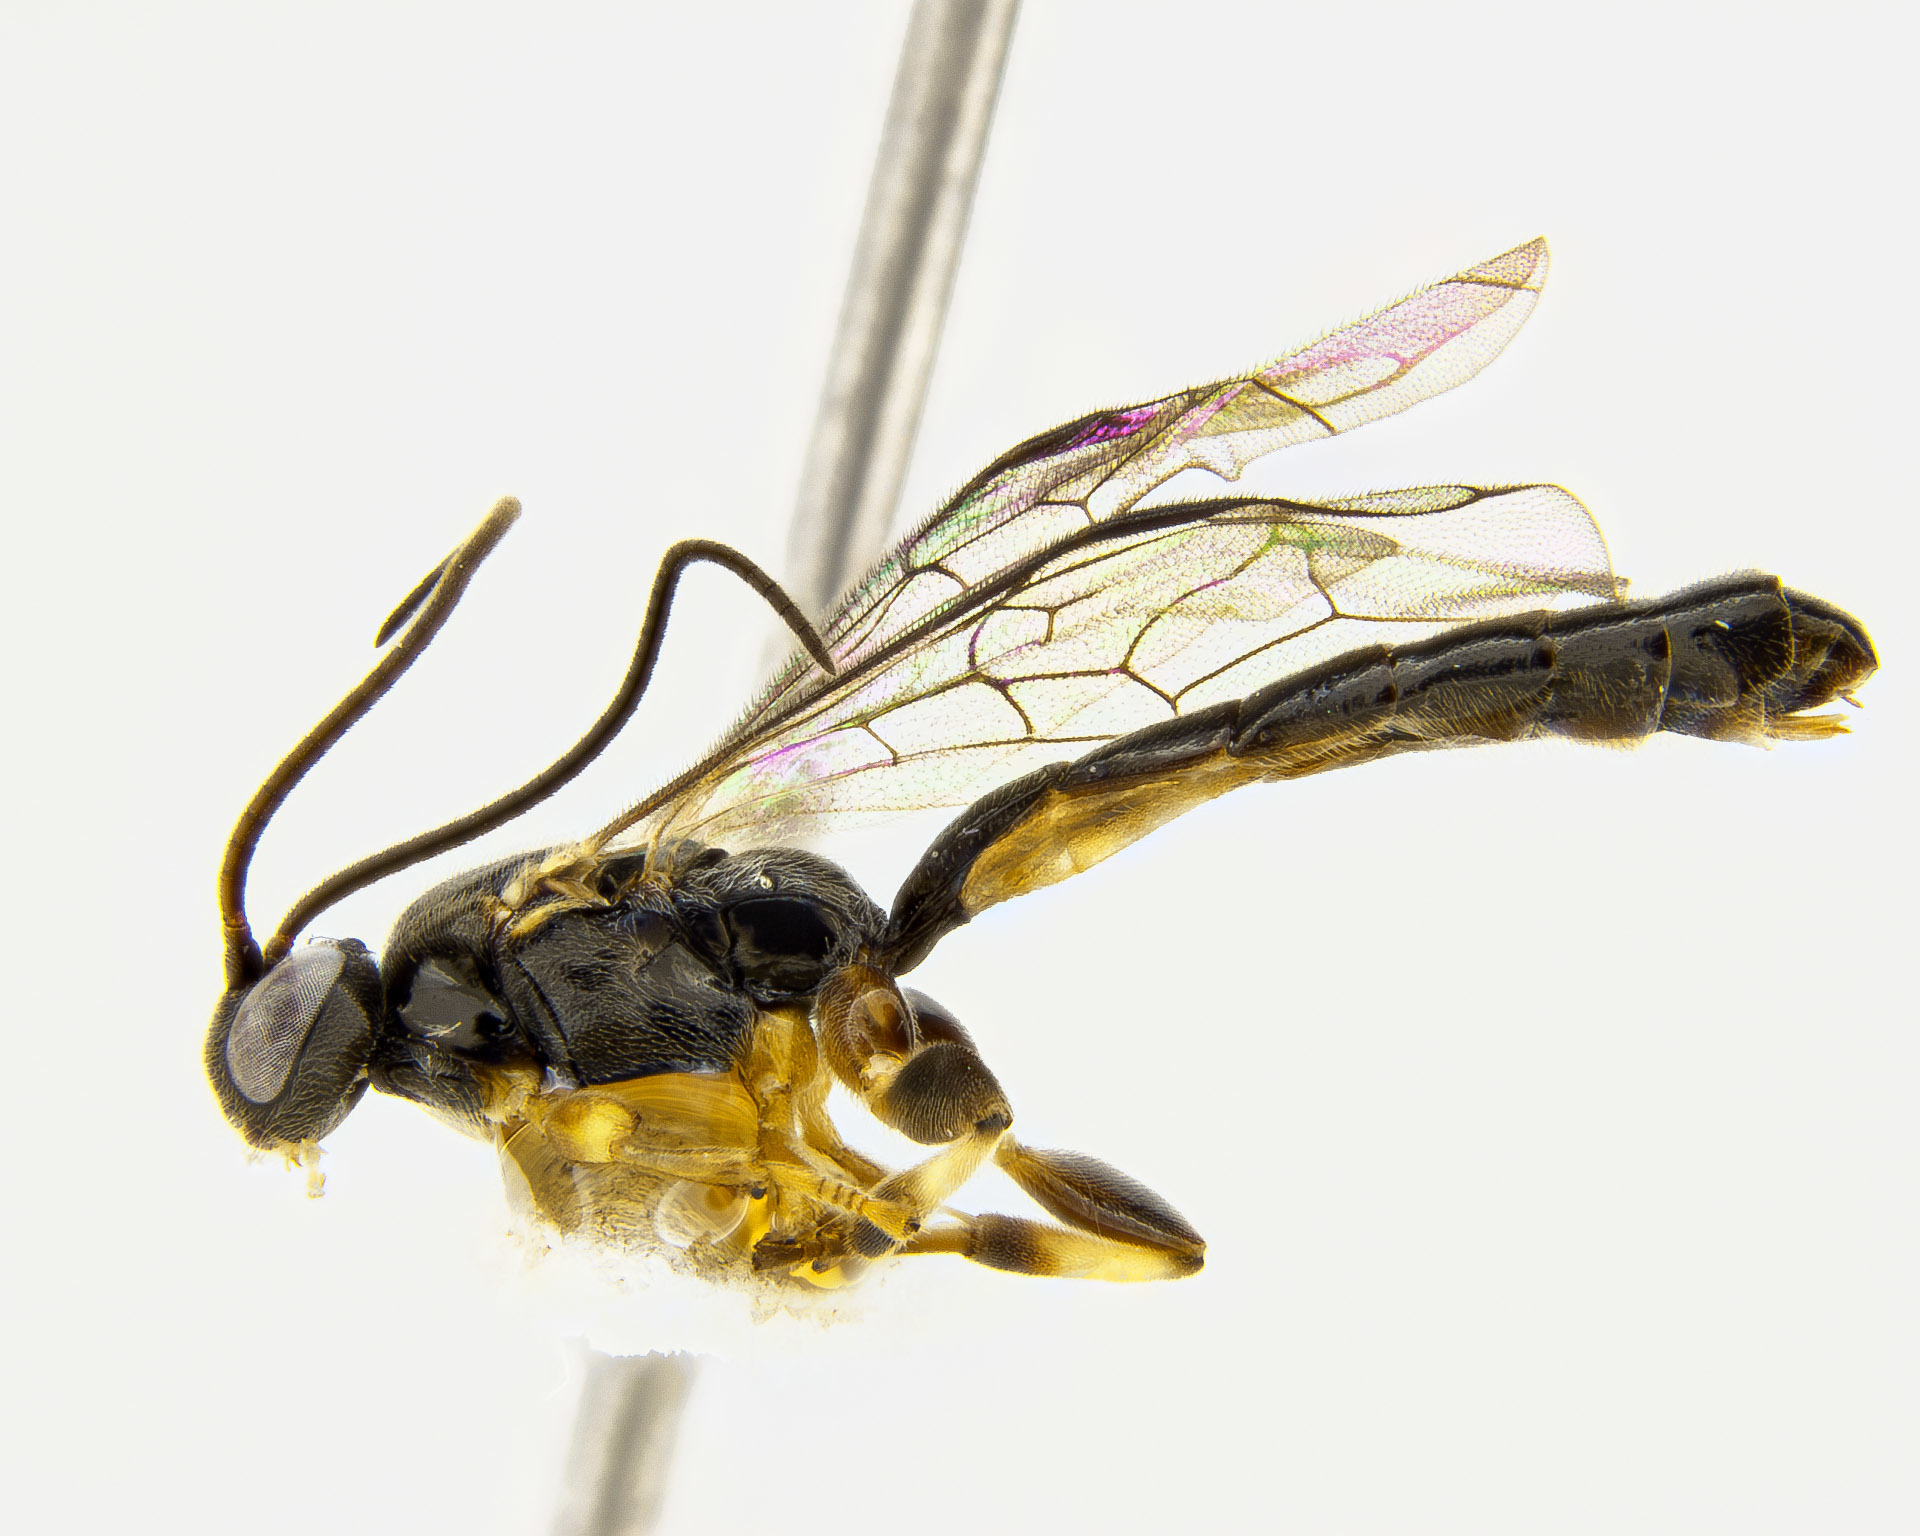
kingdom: Animalia
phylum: Arthropoda
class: Insecta
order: Hymenoptera
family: Ichneumonidae
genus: Sciron
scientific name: Sciron glaber
